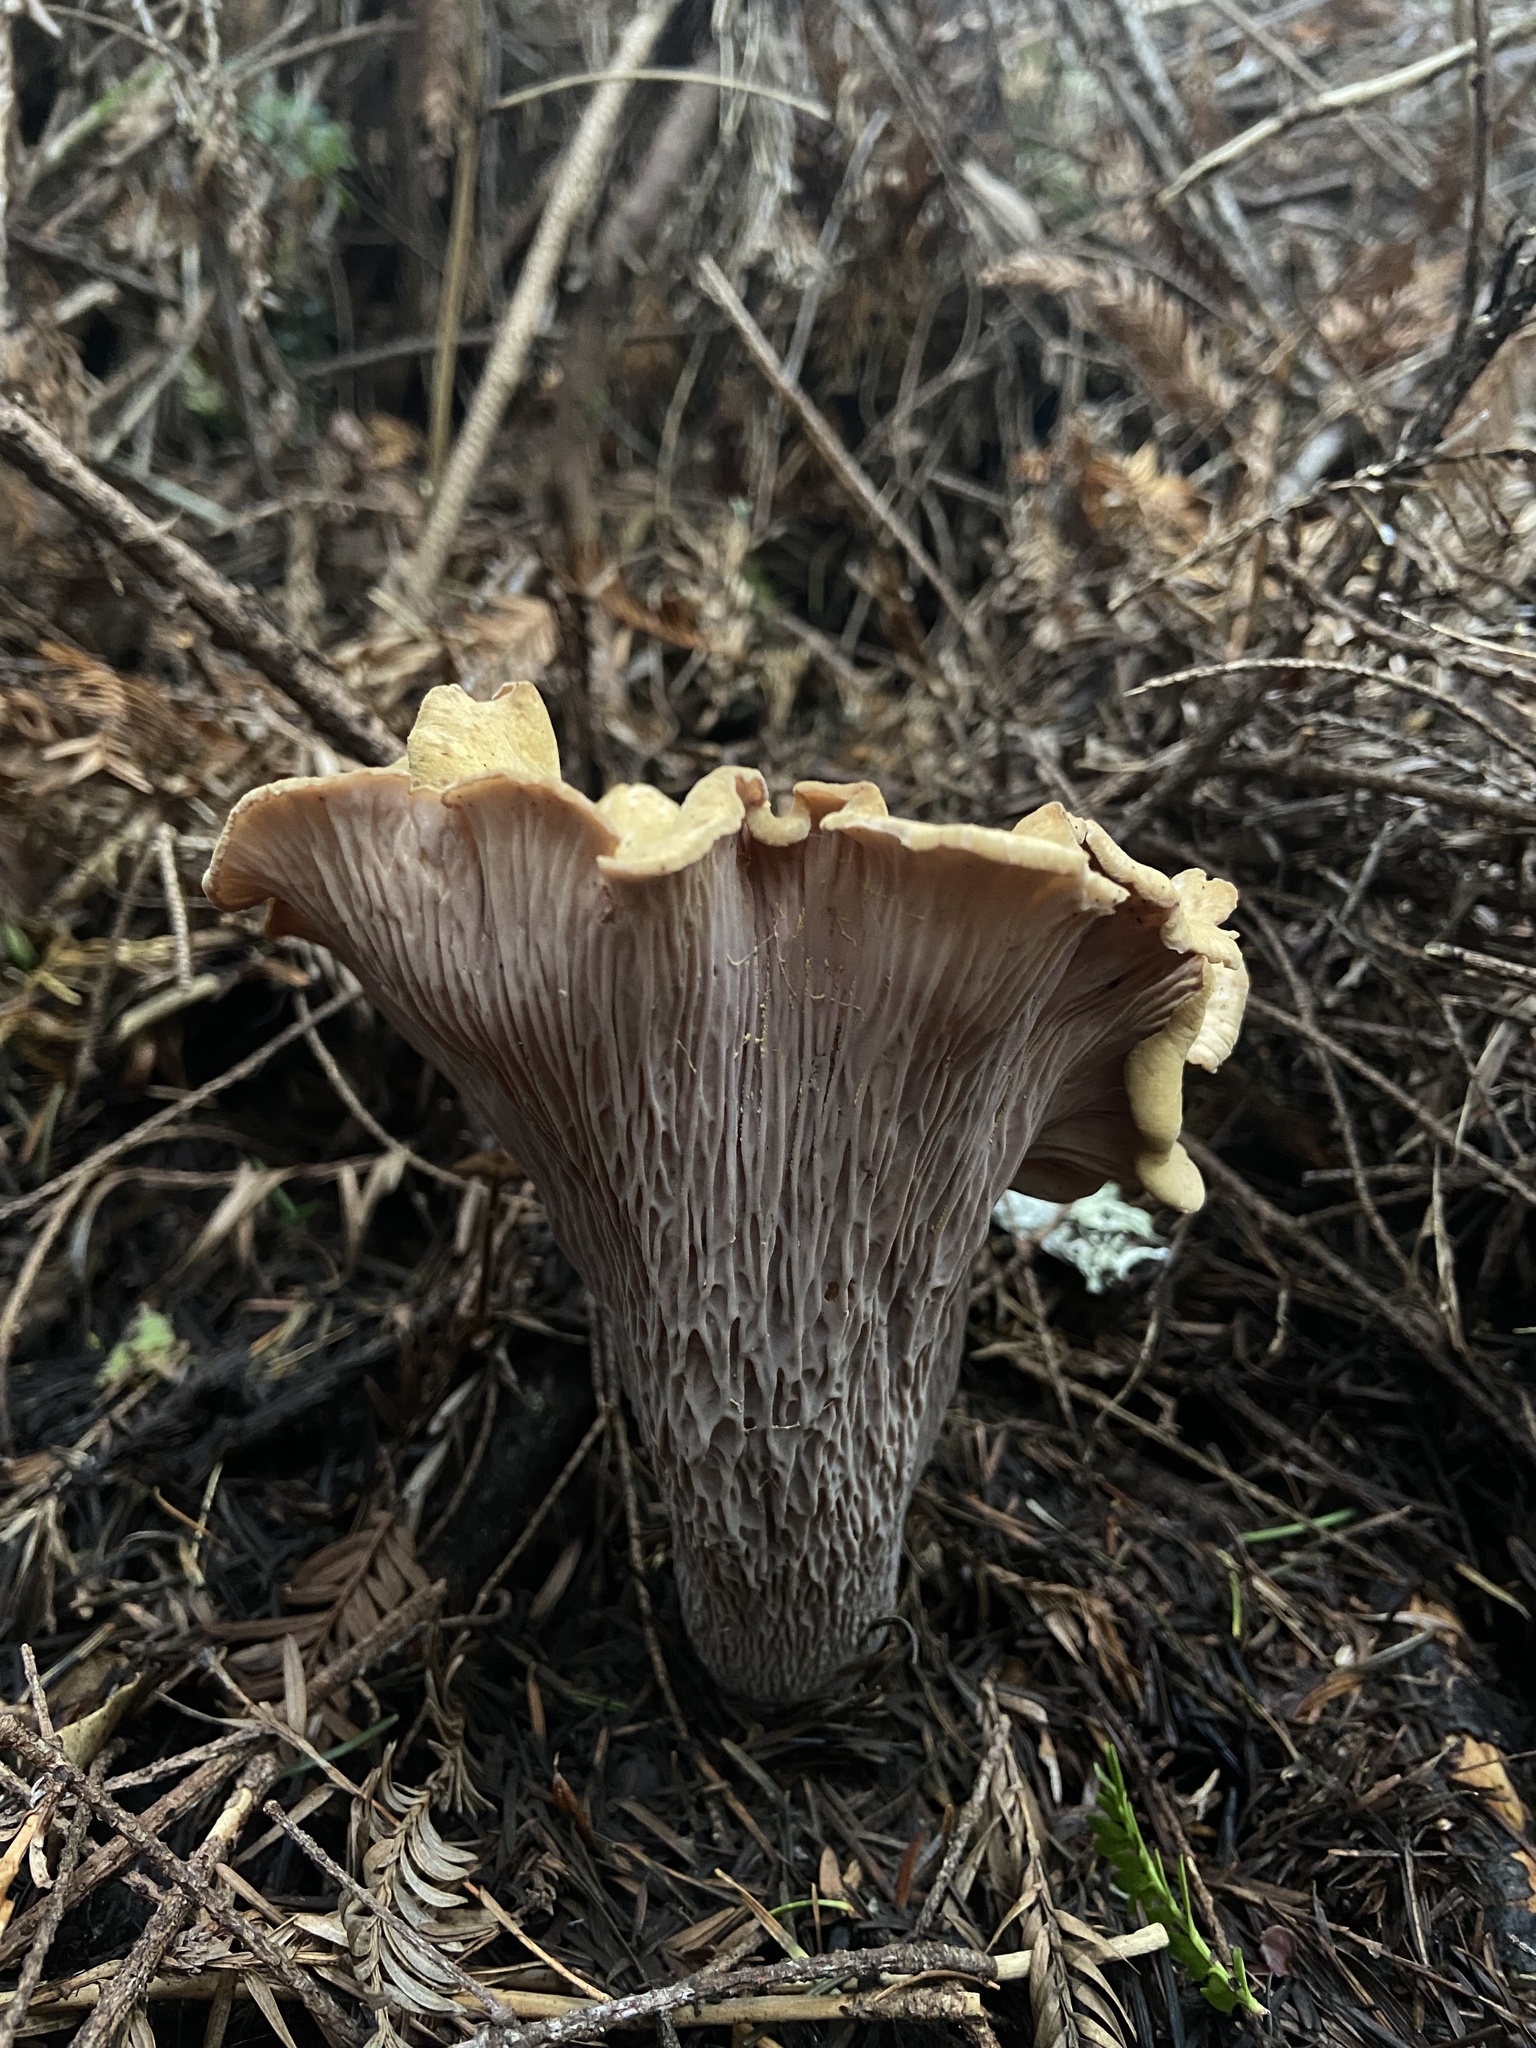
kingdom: Fungi
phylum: Basidiomycota
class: Agaricomycetes
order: Gomphales
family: Gomphaceae
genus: Gomphus
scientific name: Gomphus clavatus
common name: Pig's ear
